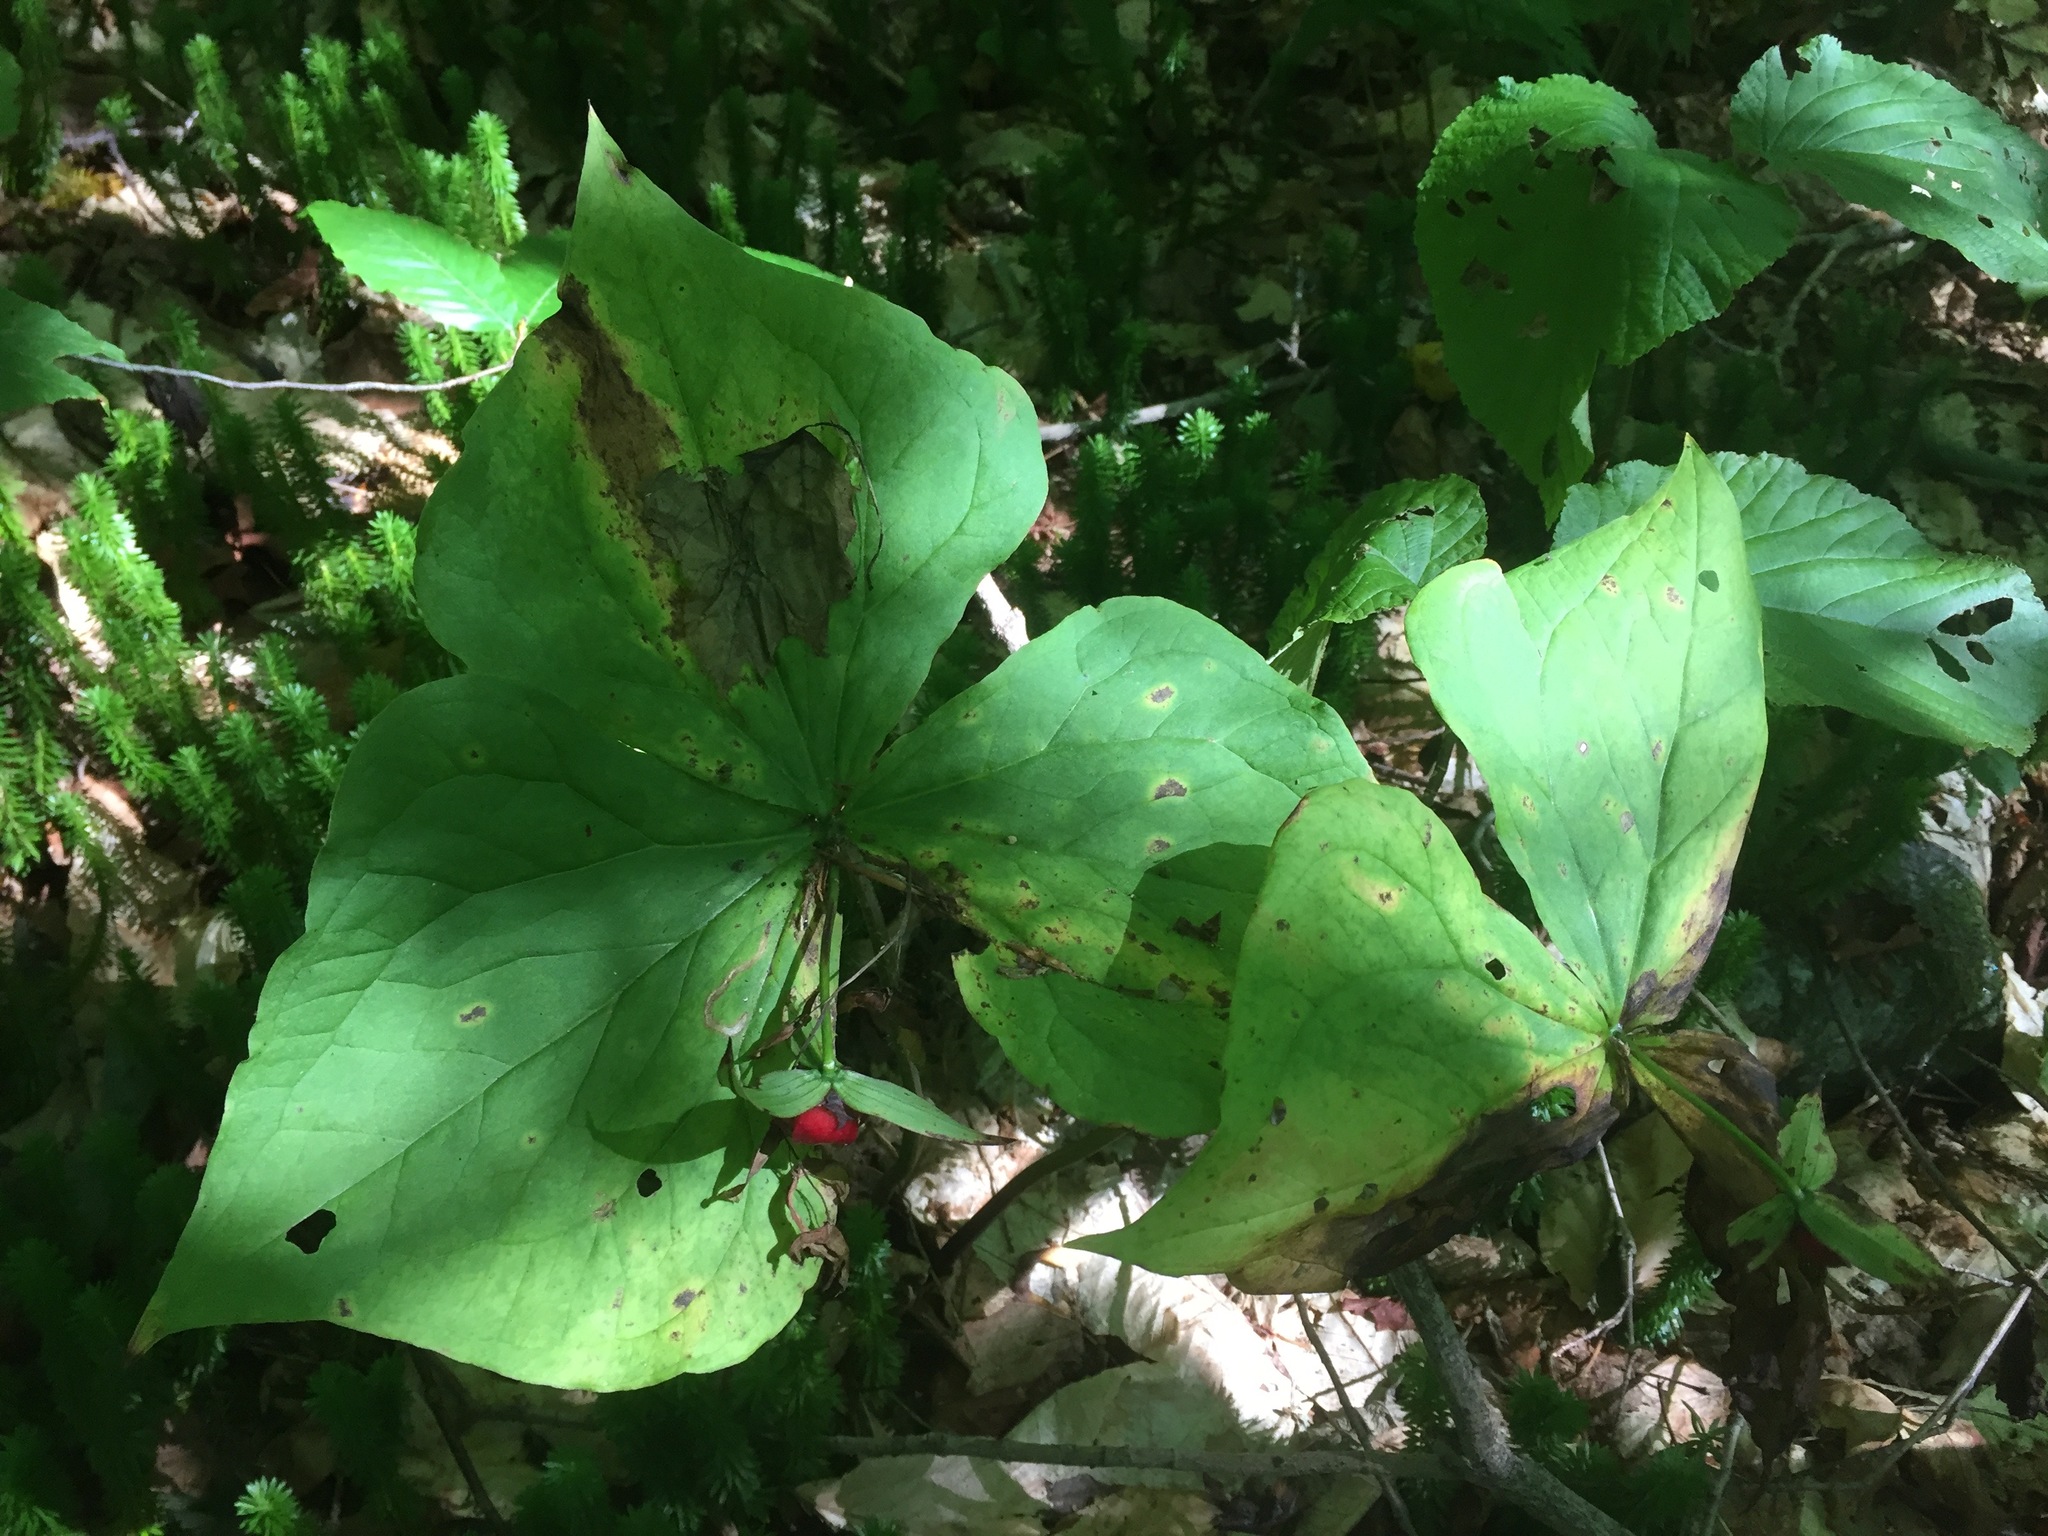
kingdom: Plantae
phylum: Tracheophyta
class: Liliopsida
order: Liliales
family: Melanthiaceae
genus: Trillium
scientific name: Trillium erectum
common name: Purple trillium
